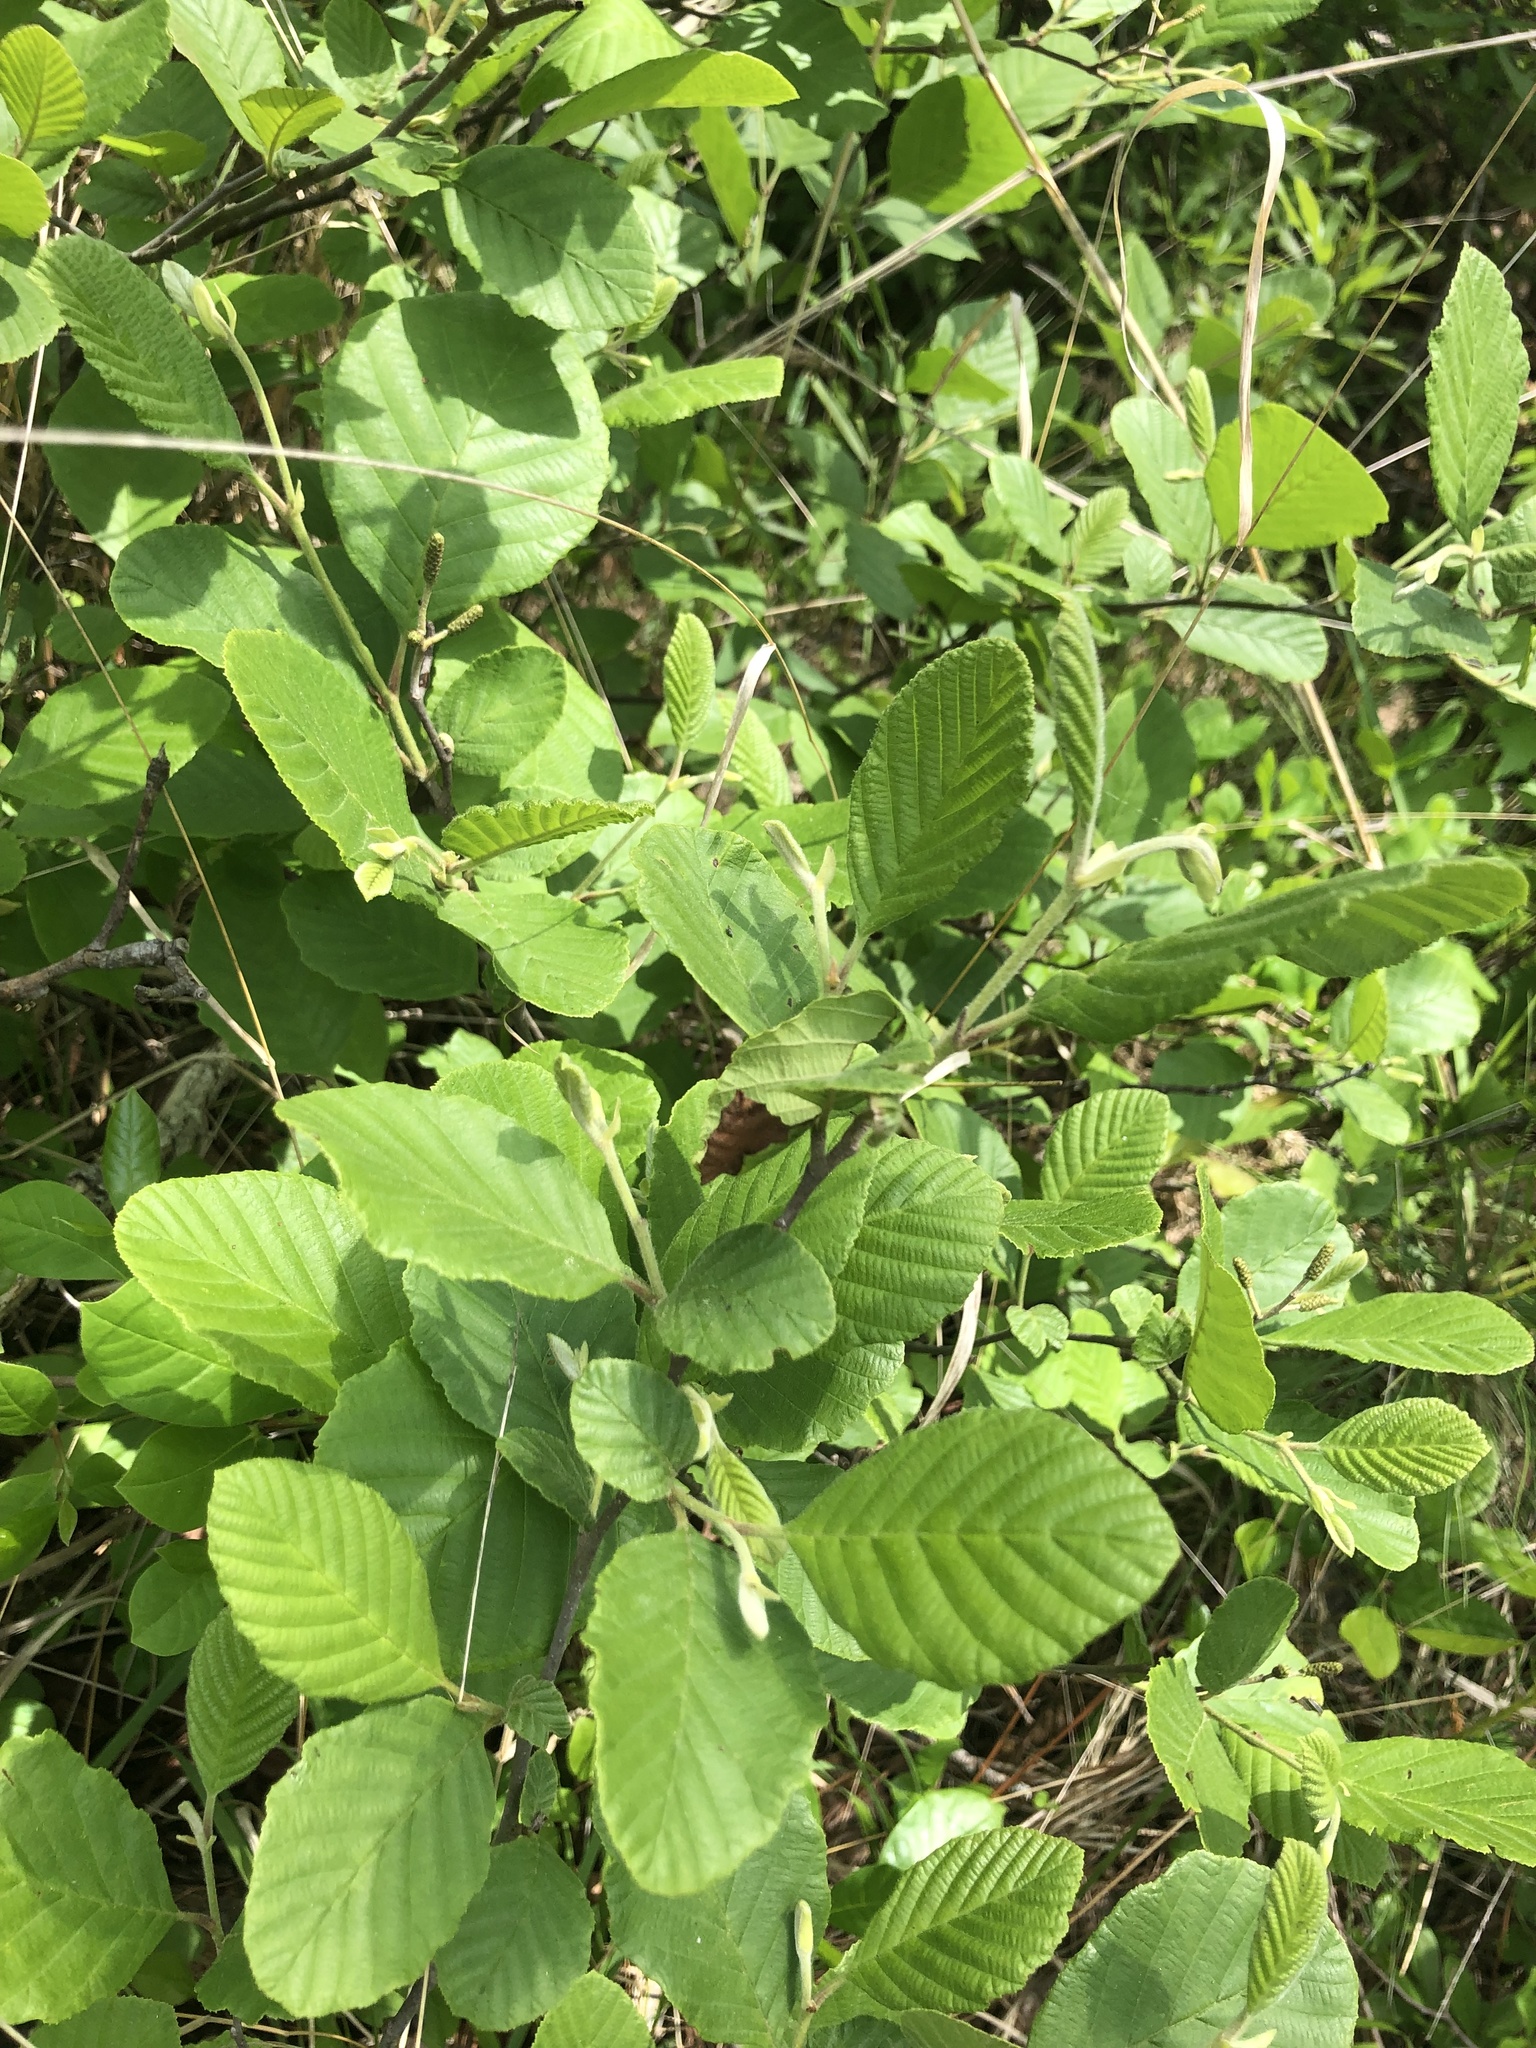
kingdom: Plantae
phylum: Tracheophyta
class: Magnoliopsida
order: Fagales
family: Betulaceae
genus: Alnus
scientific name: Alnus serrulata
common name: Hazel alder
